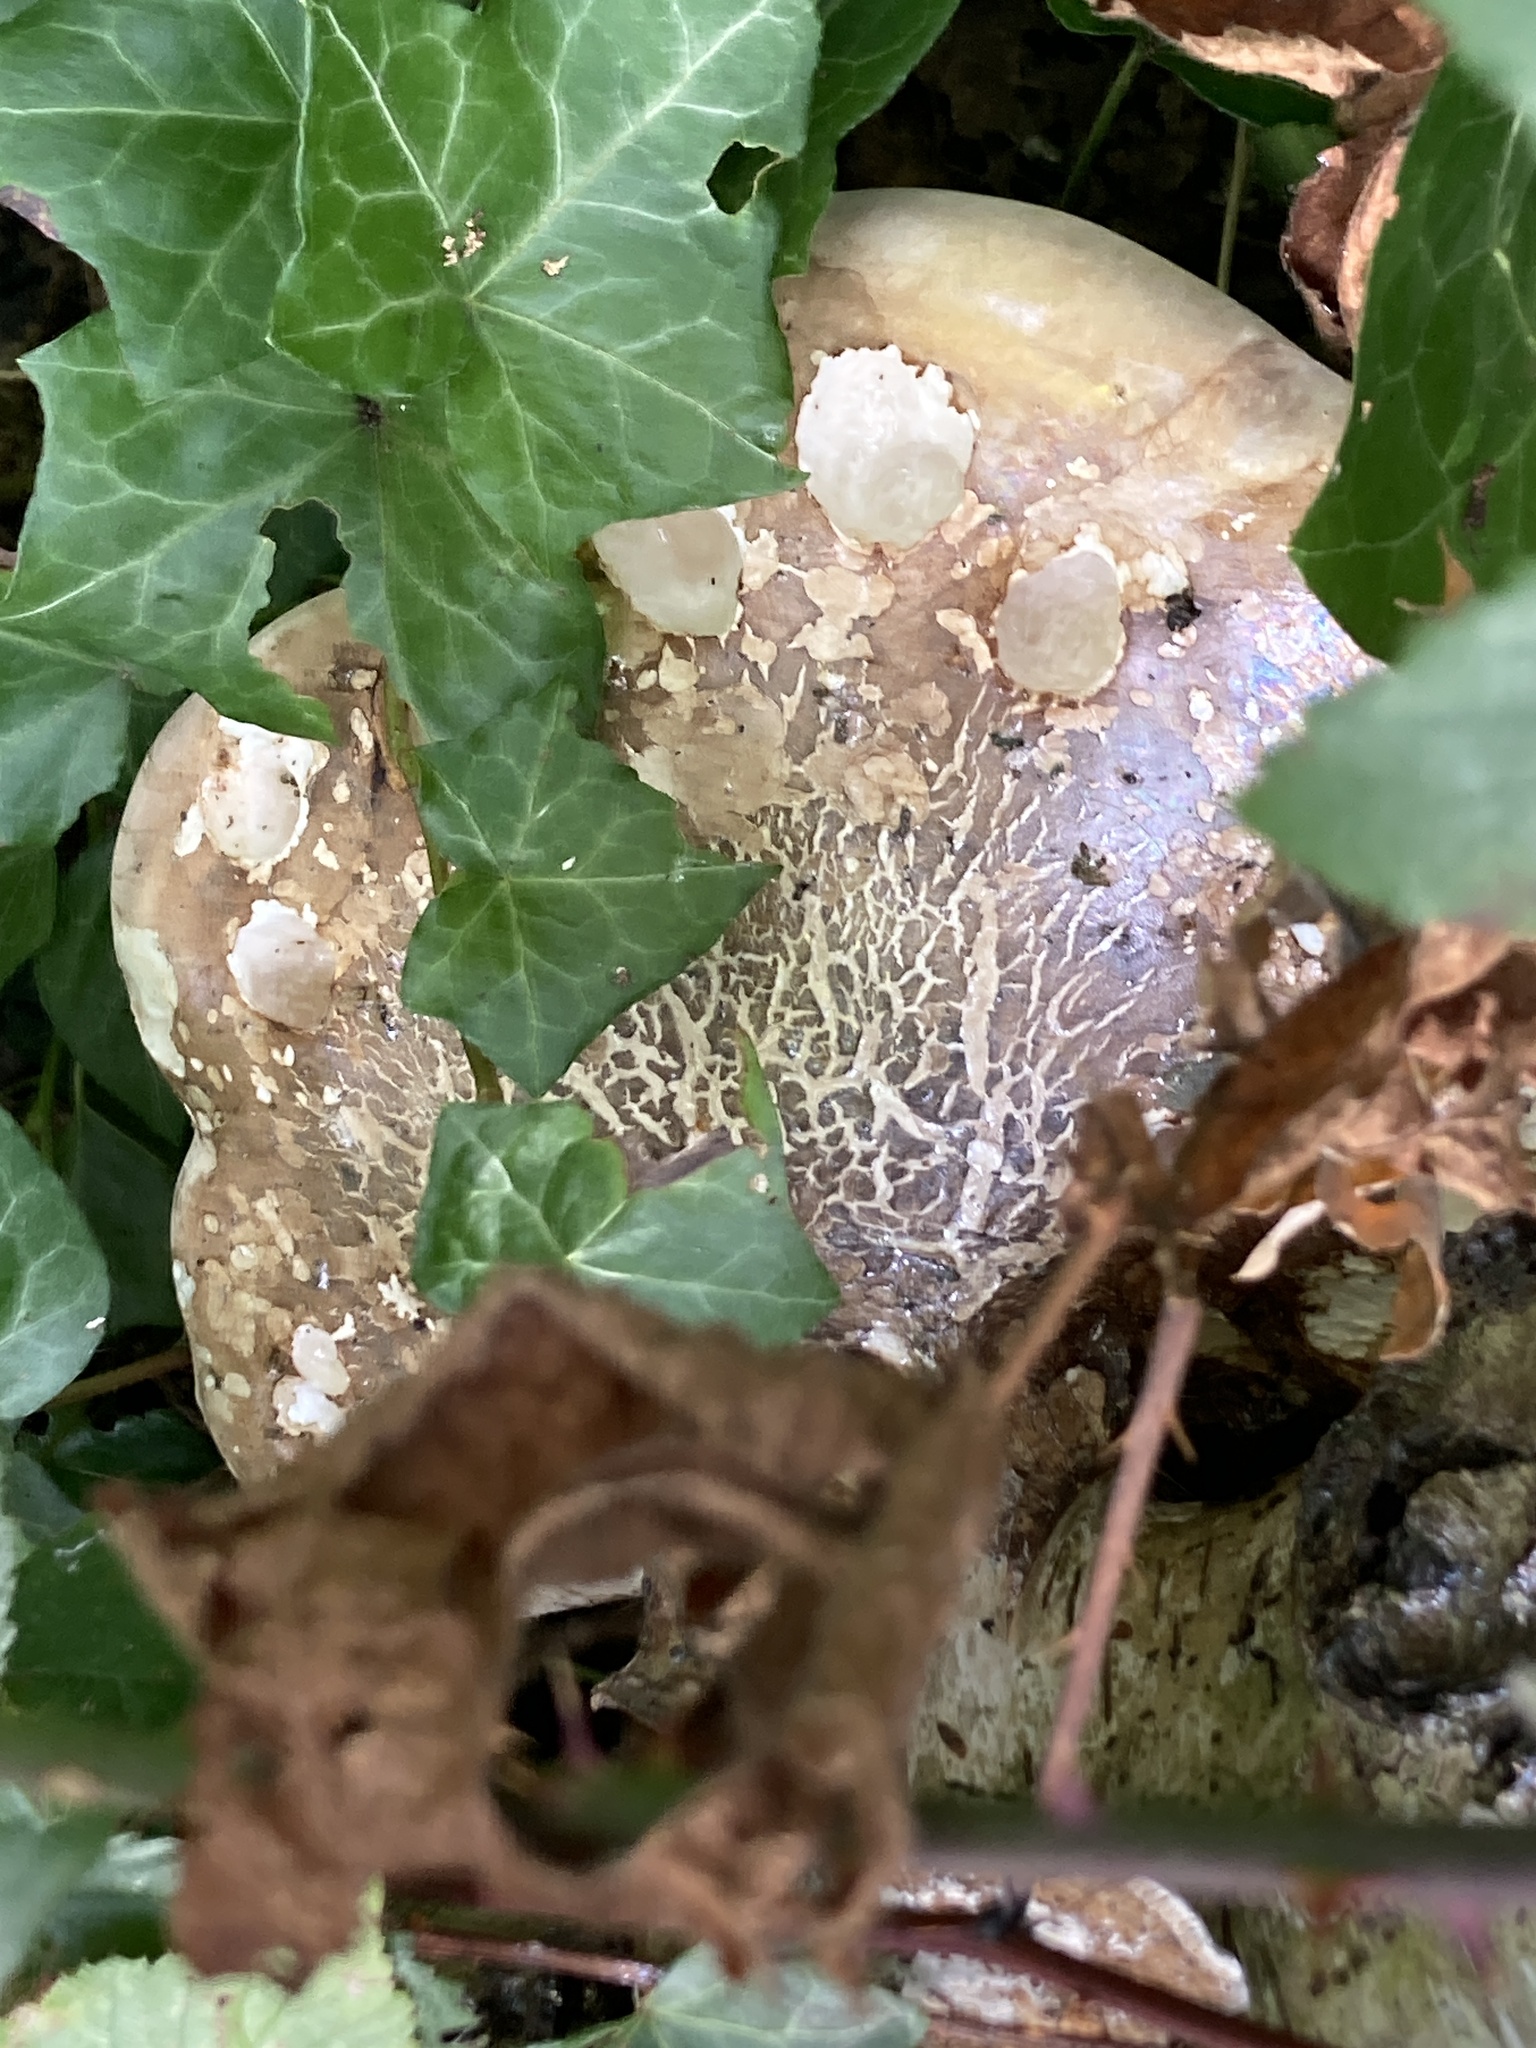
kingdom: Fungi
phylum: Basidiomycota
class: Agaricomycetes
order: Polyporales
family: Fomitopsidaceae
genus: Fomitopsis
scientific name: Fomitopsis betulina
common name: Birch polypore
